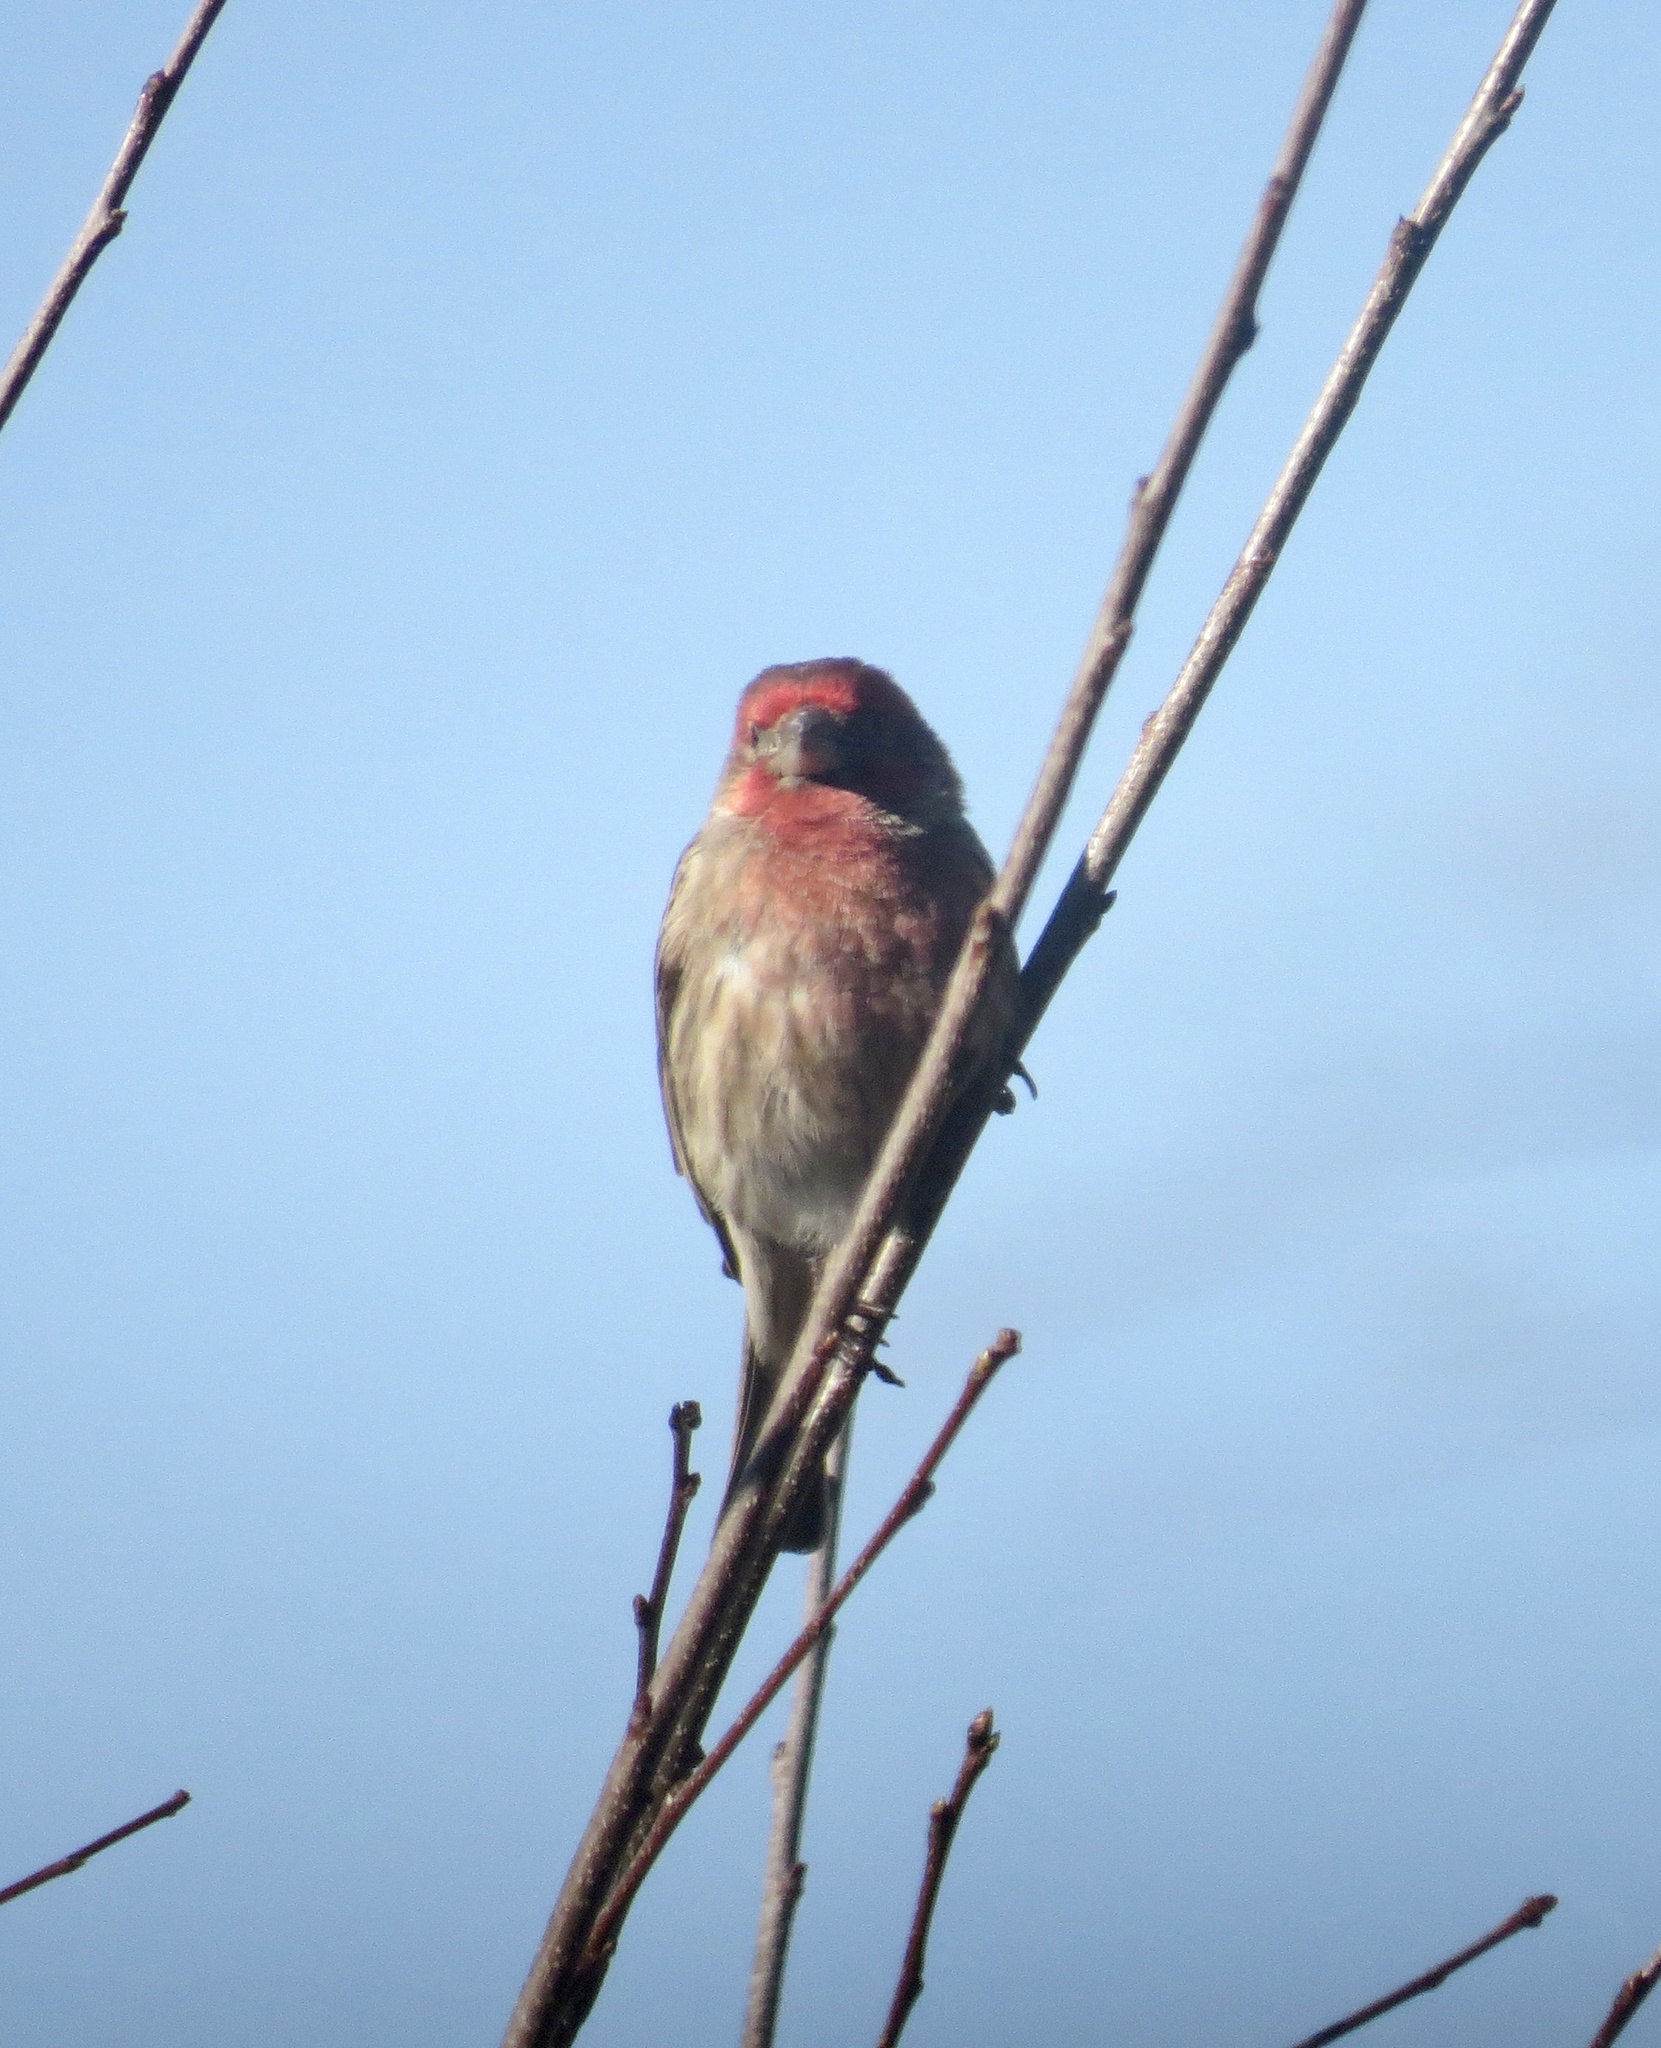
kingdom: Animalia
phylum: Chordata
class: Aves
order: Passeriformes
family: Fringillidae
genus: Haemorhous
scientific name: Haemorhous mexicanus
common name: House finch
